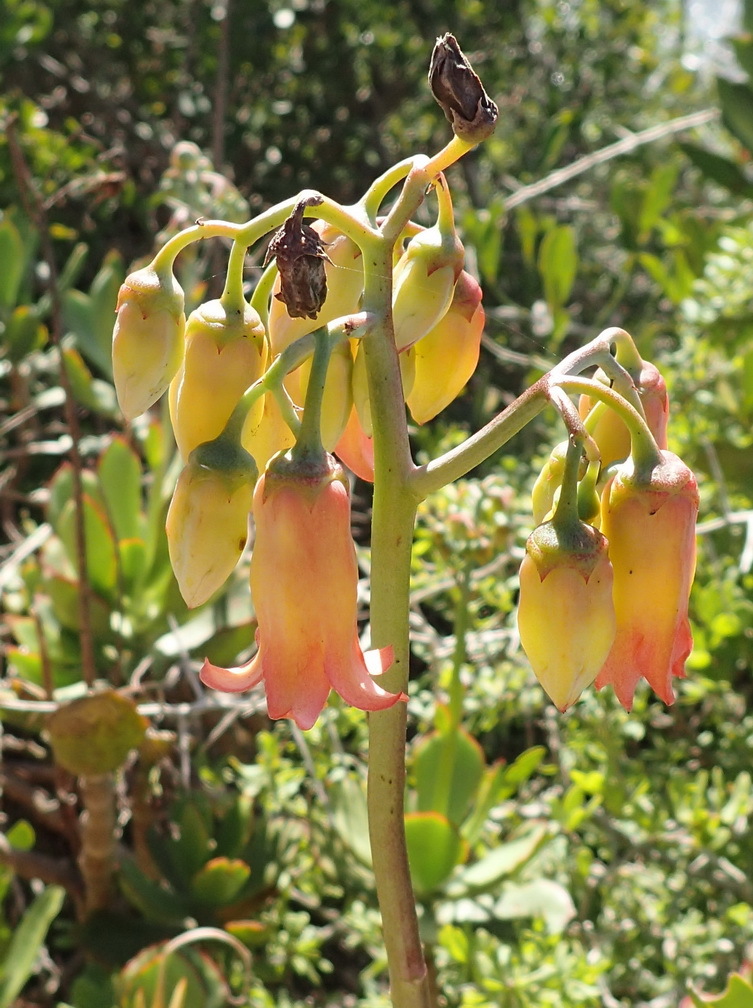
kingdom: Plantae
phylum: Tracheophyta
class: Magnoliopsida
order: Saxifragales
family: Crassulaceae
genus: Cotyledon
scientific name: Cotyledon orbiculata
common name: Pig's ear
